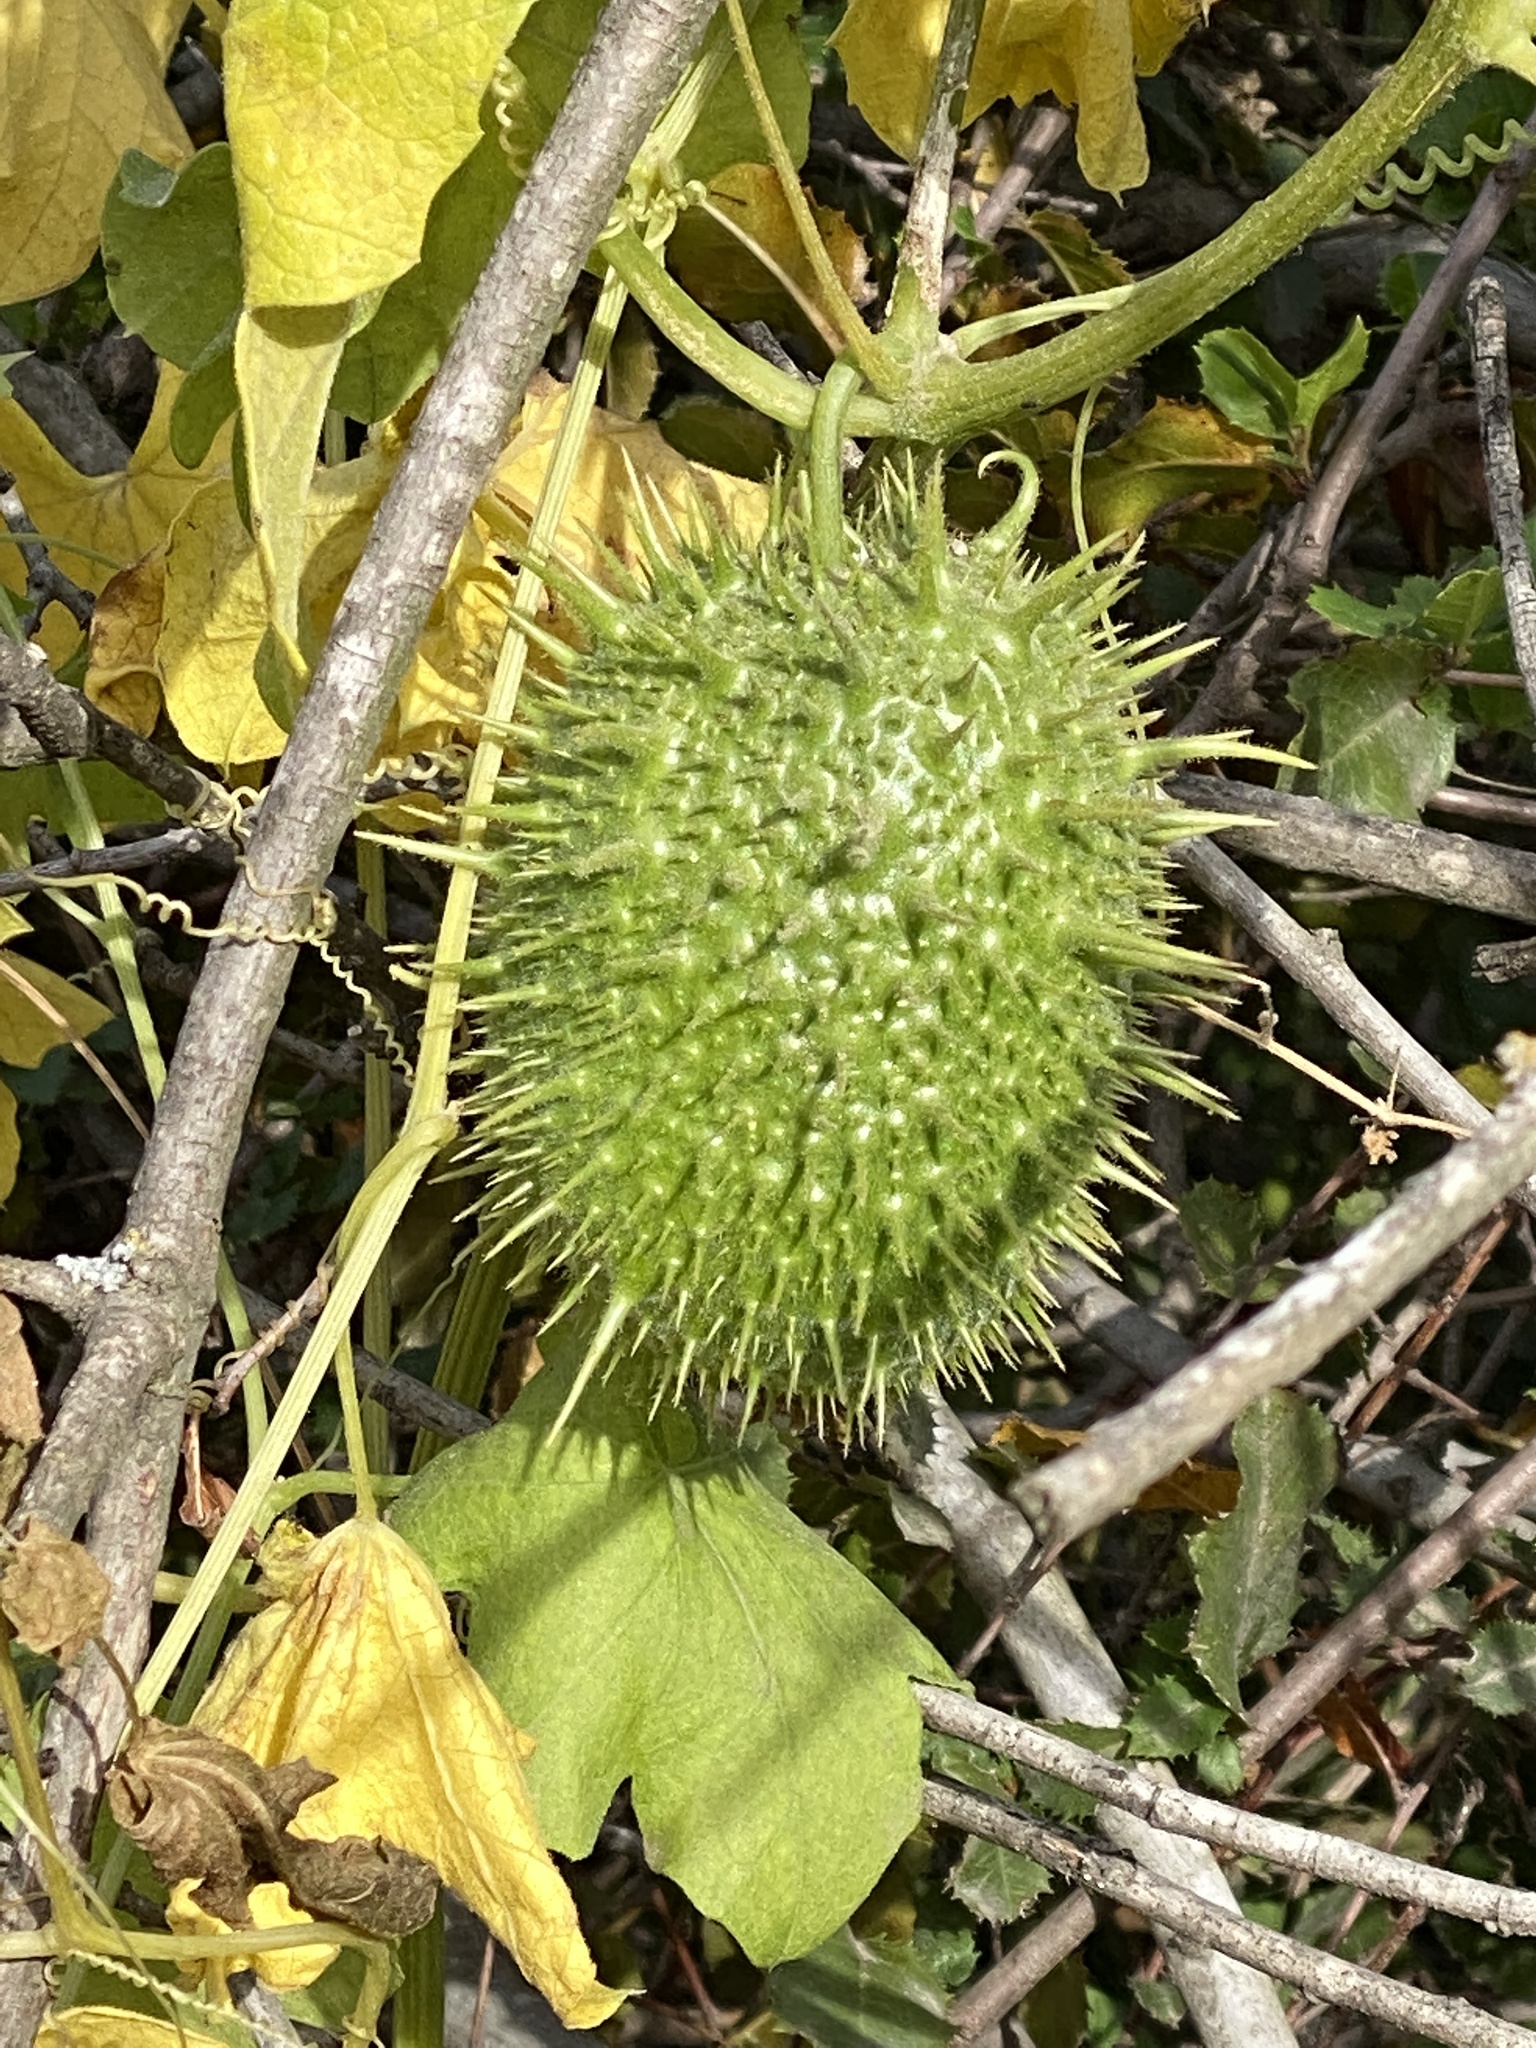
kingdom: Plantae
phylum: Tracheophyta
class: Magnoliopsida
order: Cucurbitales
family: Cucurbitaceae
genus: Marah
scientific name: Marah macrocarpa
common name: Cucamonga manroot
